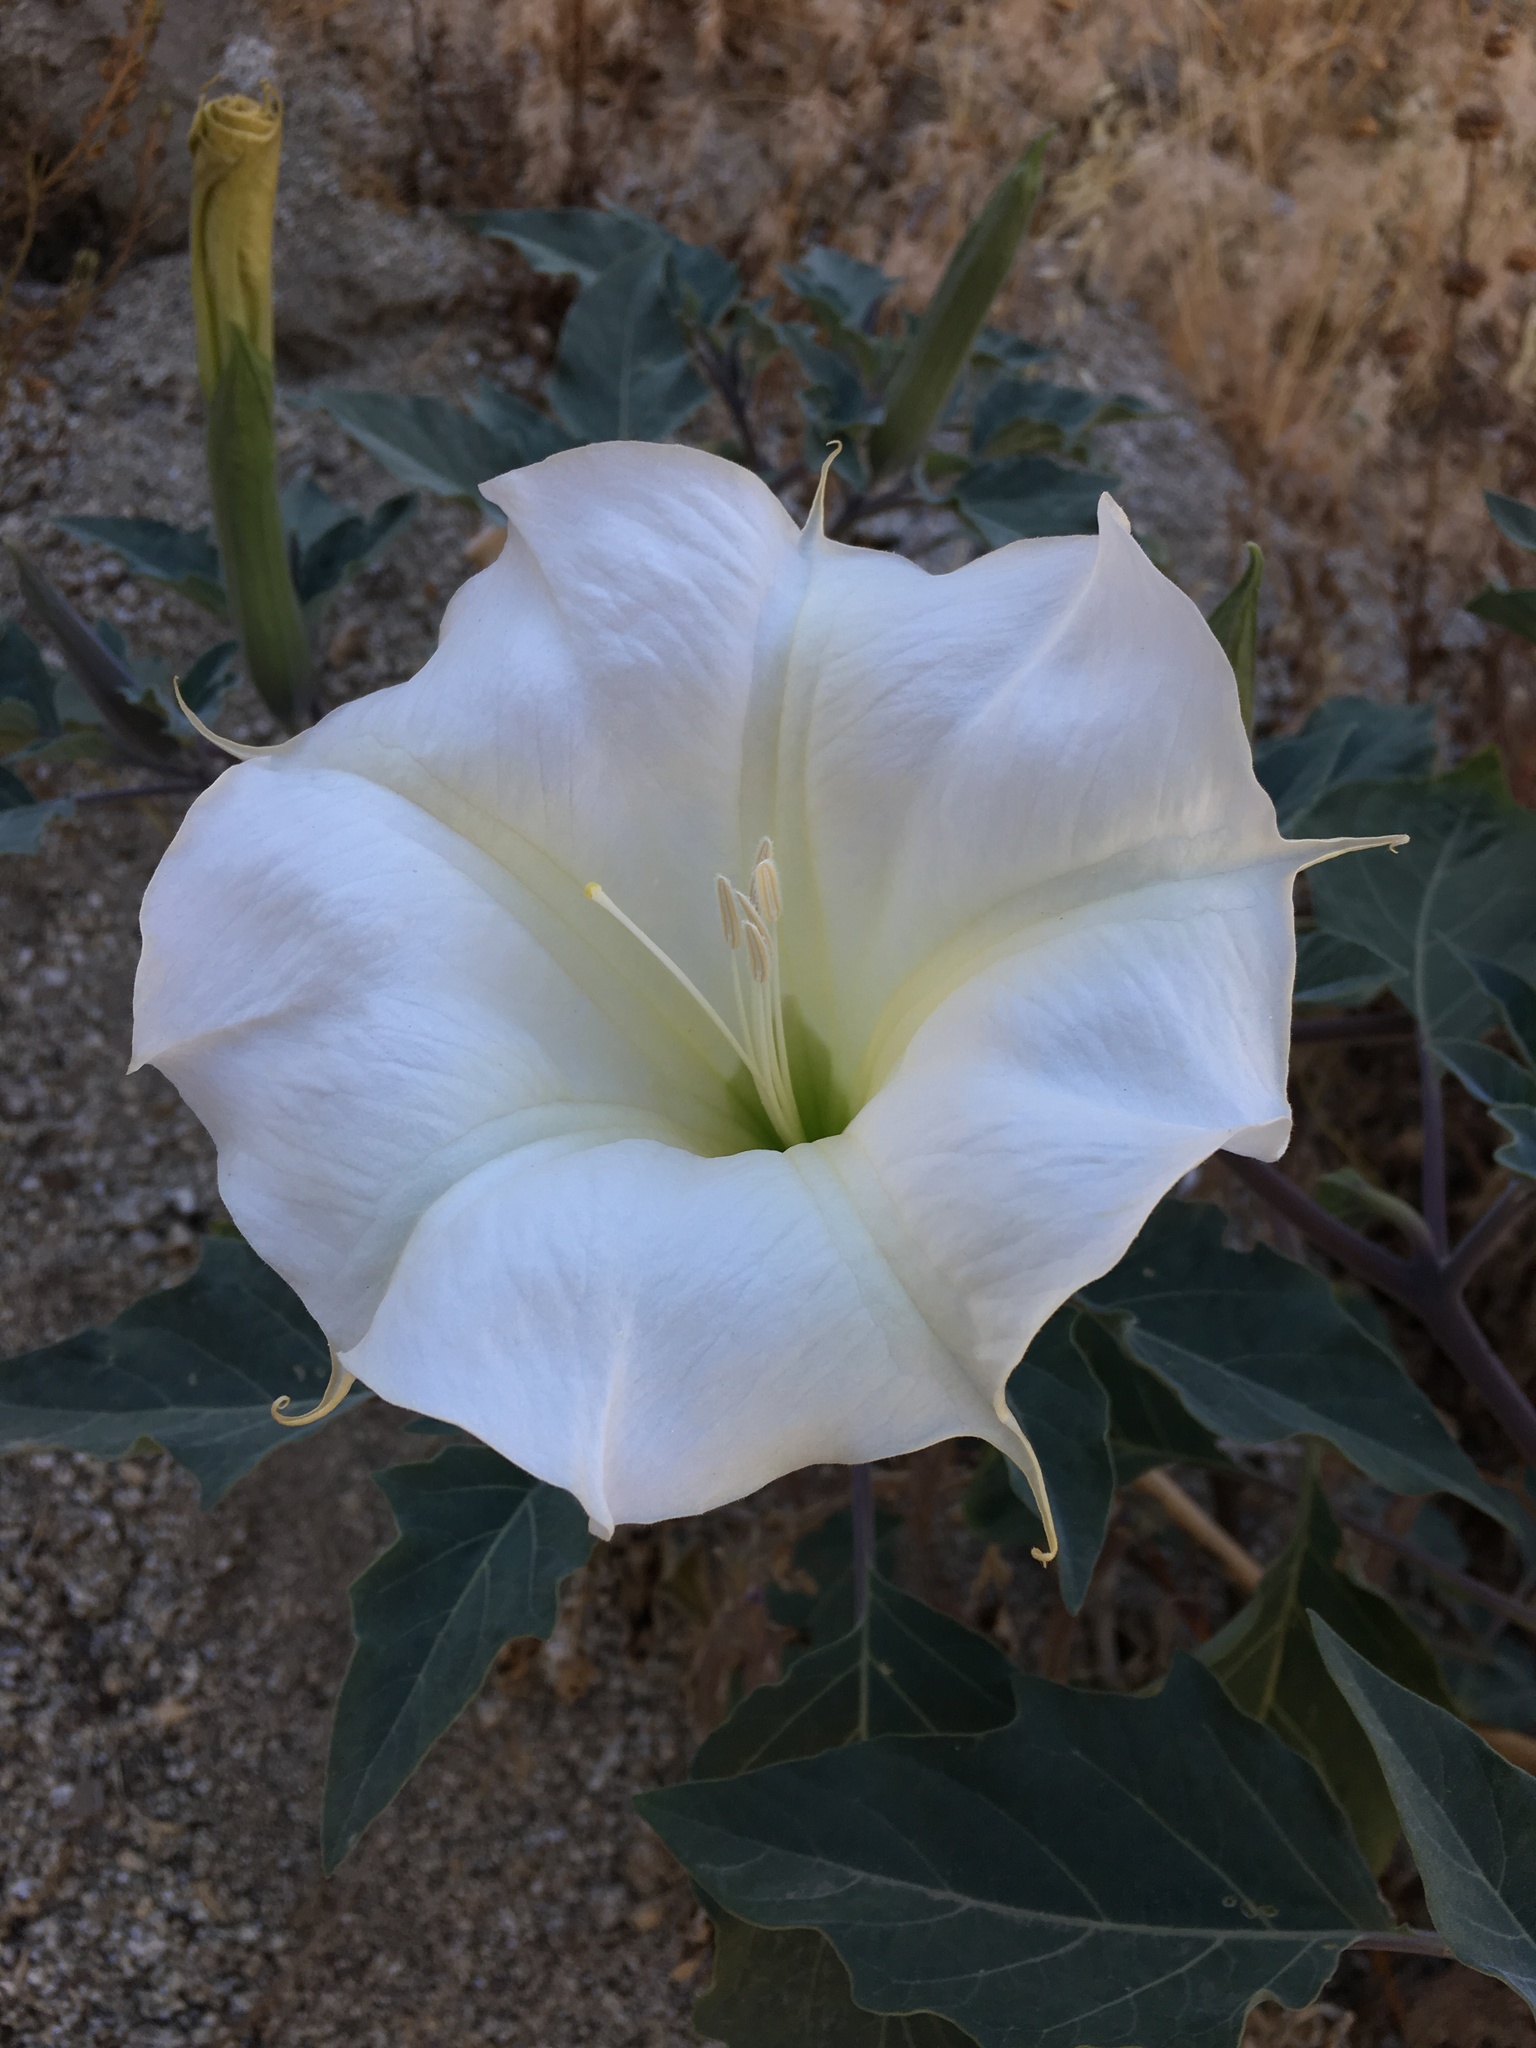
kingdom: Plantae
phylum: Tracheophyta
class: Magnoliopsida
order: Solanales
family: Solanaceae
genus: Datura
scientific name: Datura wrightii
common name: Sacred thorn-apple
